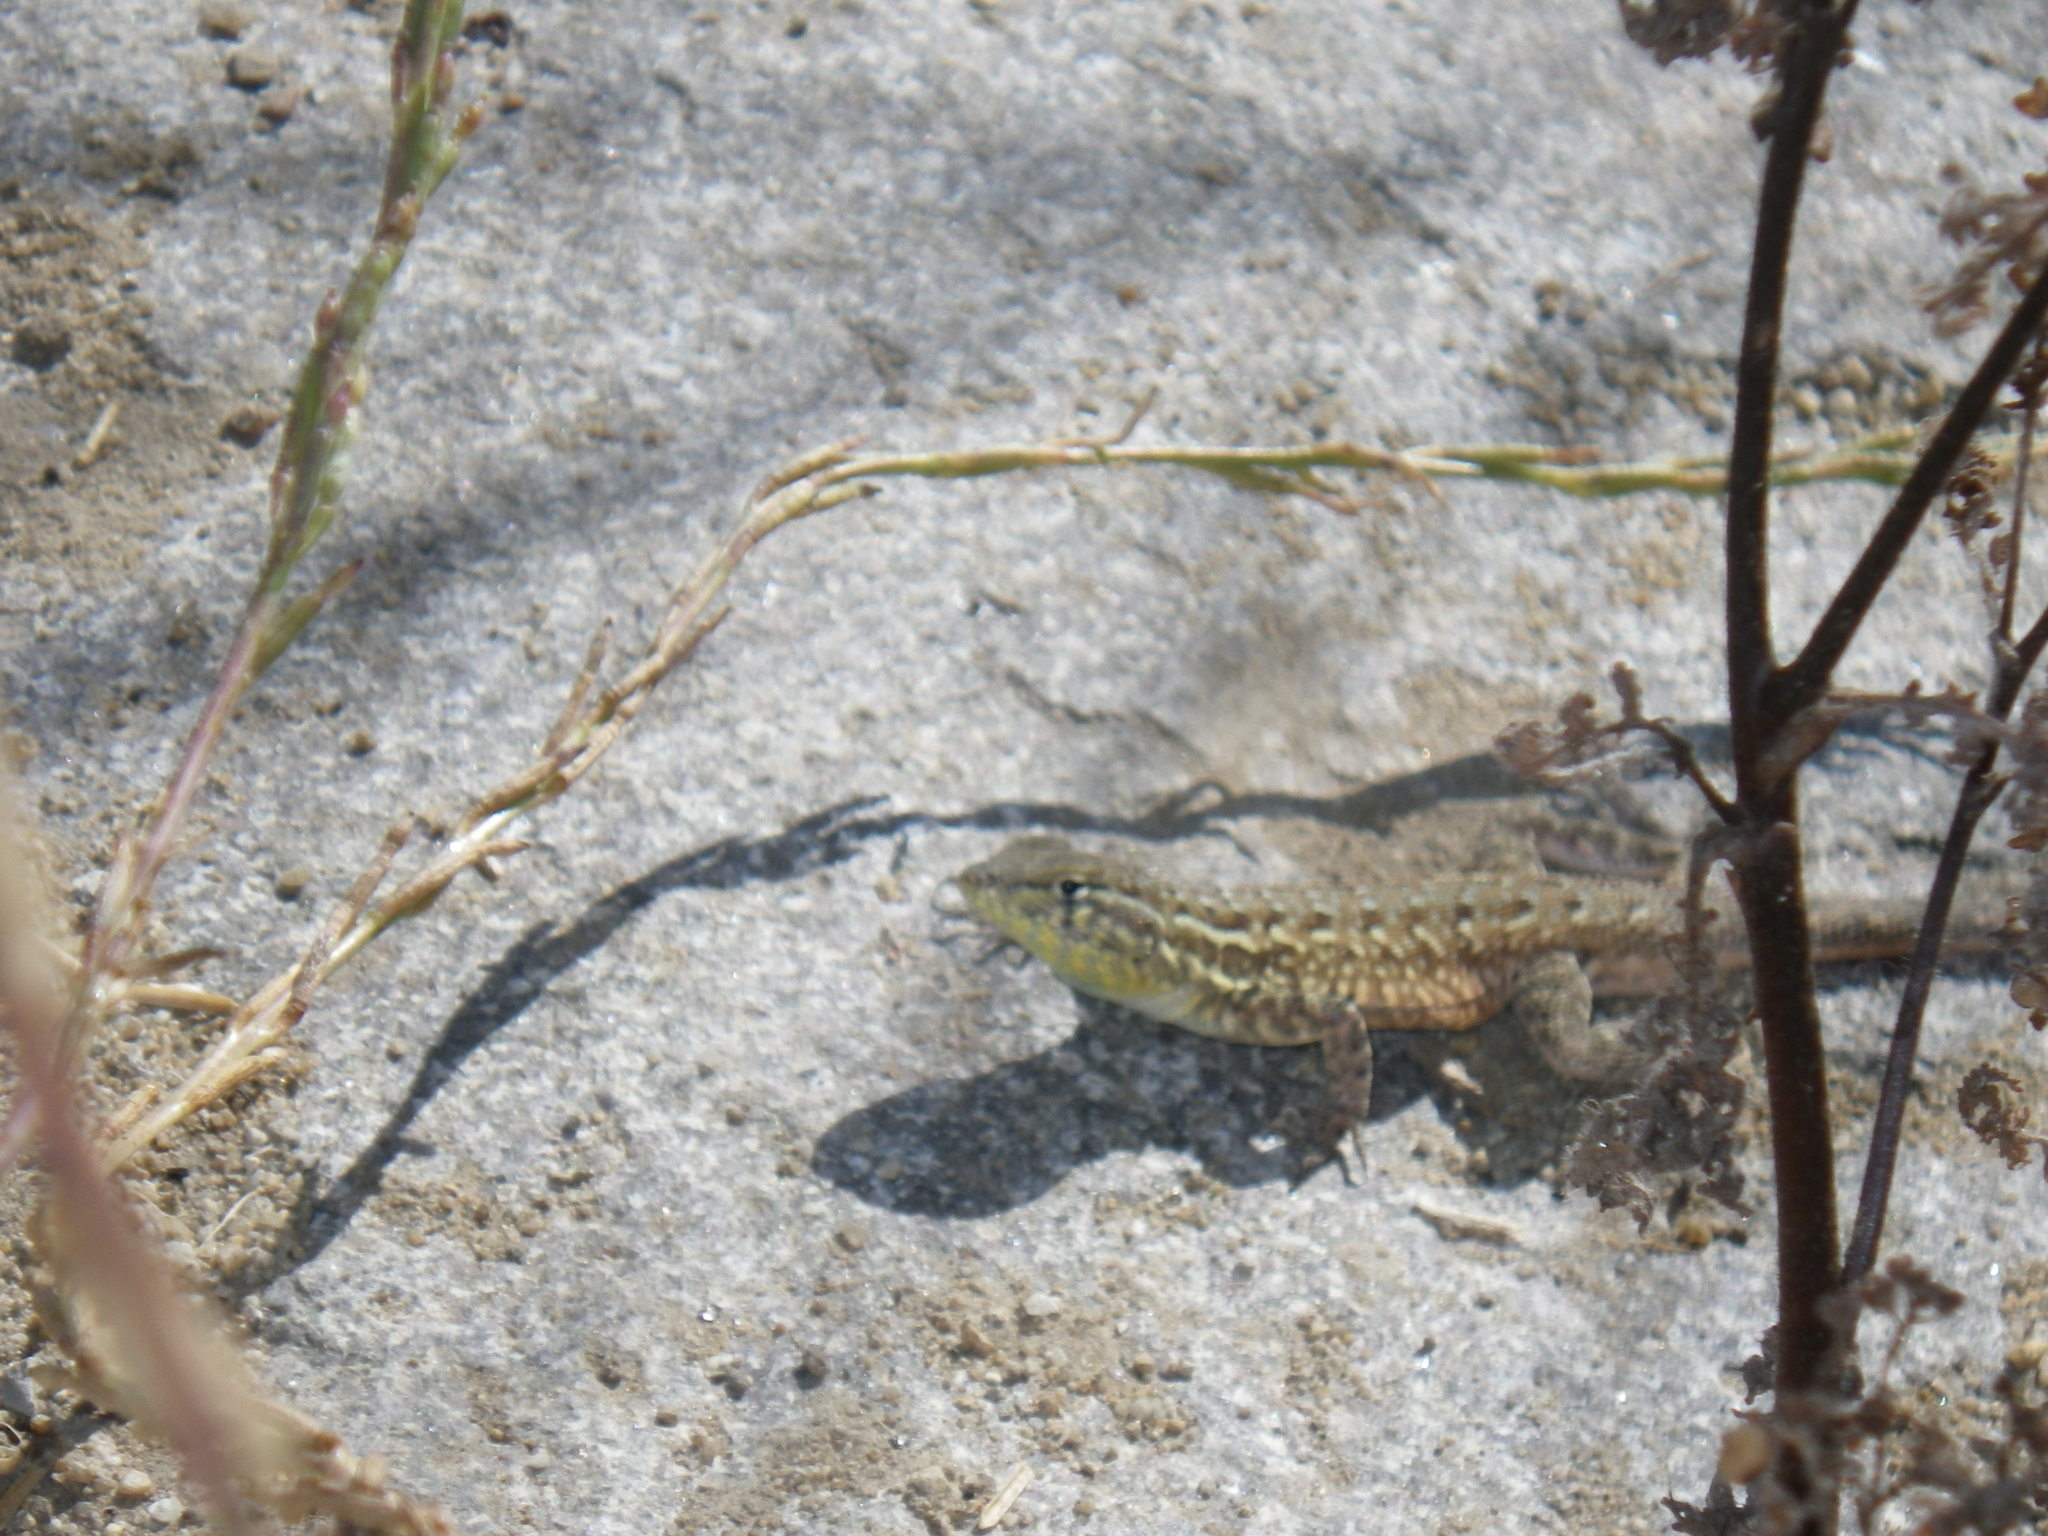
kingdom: Animalia
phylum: Chordata
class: Squamata
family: Phrynosomatidae
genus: Uta
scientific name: Uta stansburiana
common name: Side-blotched lizard
